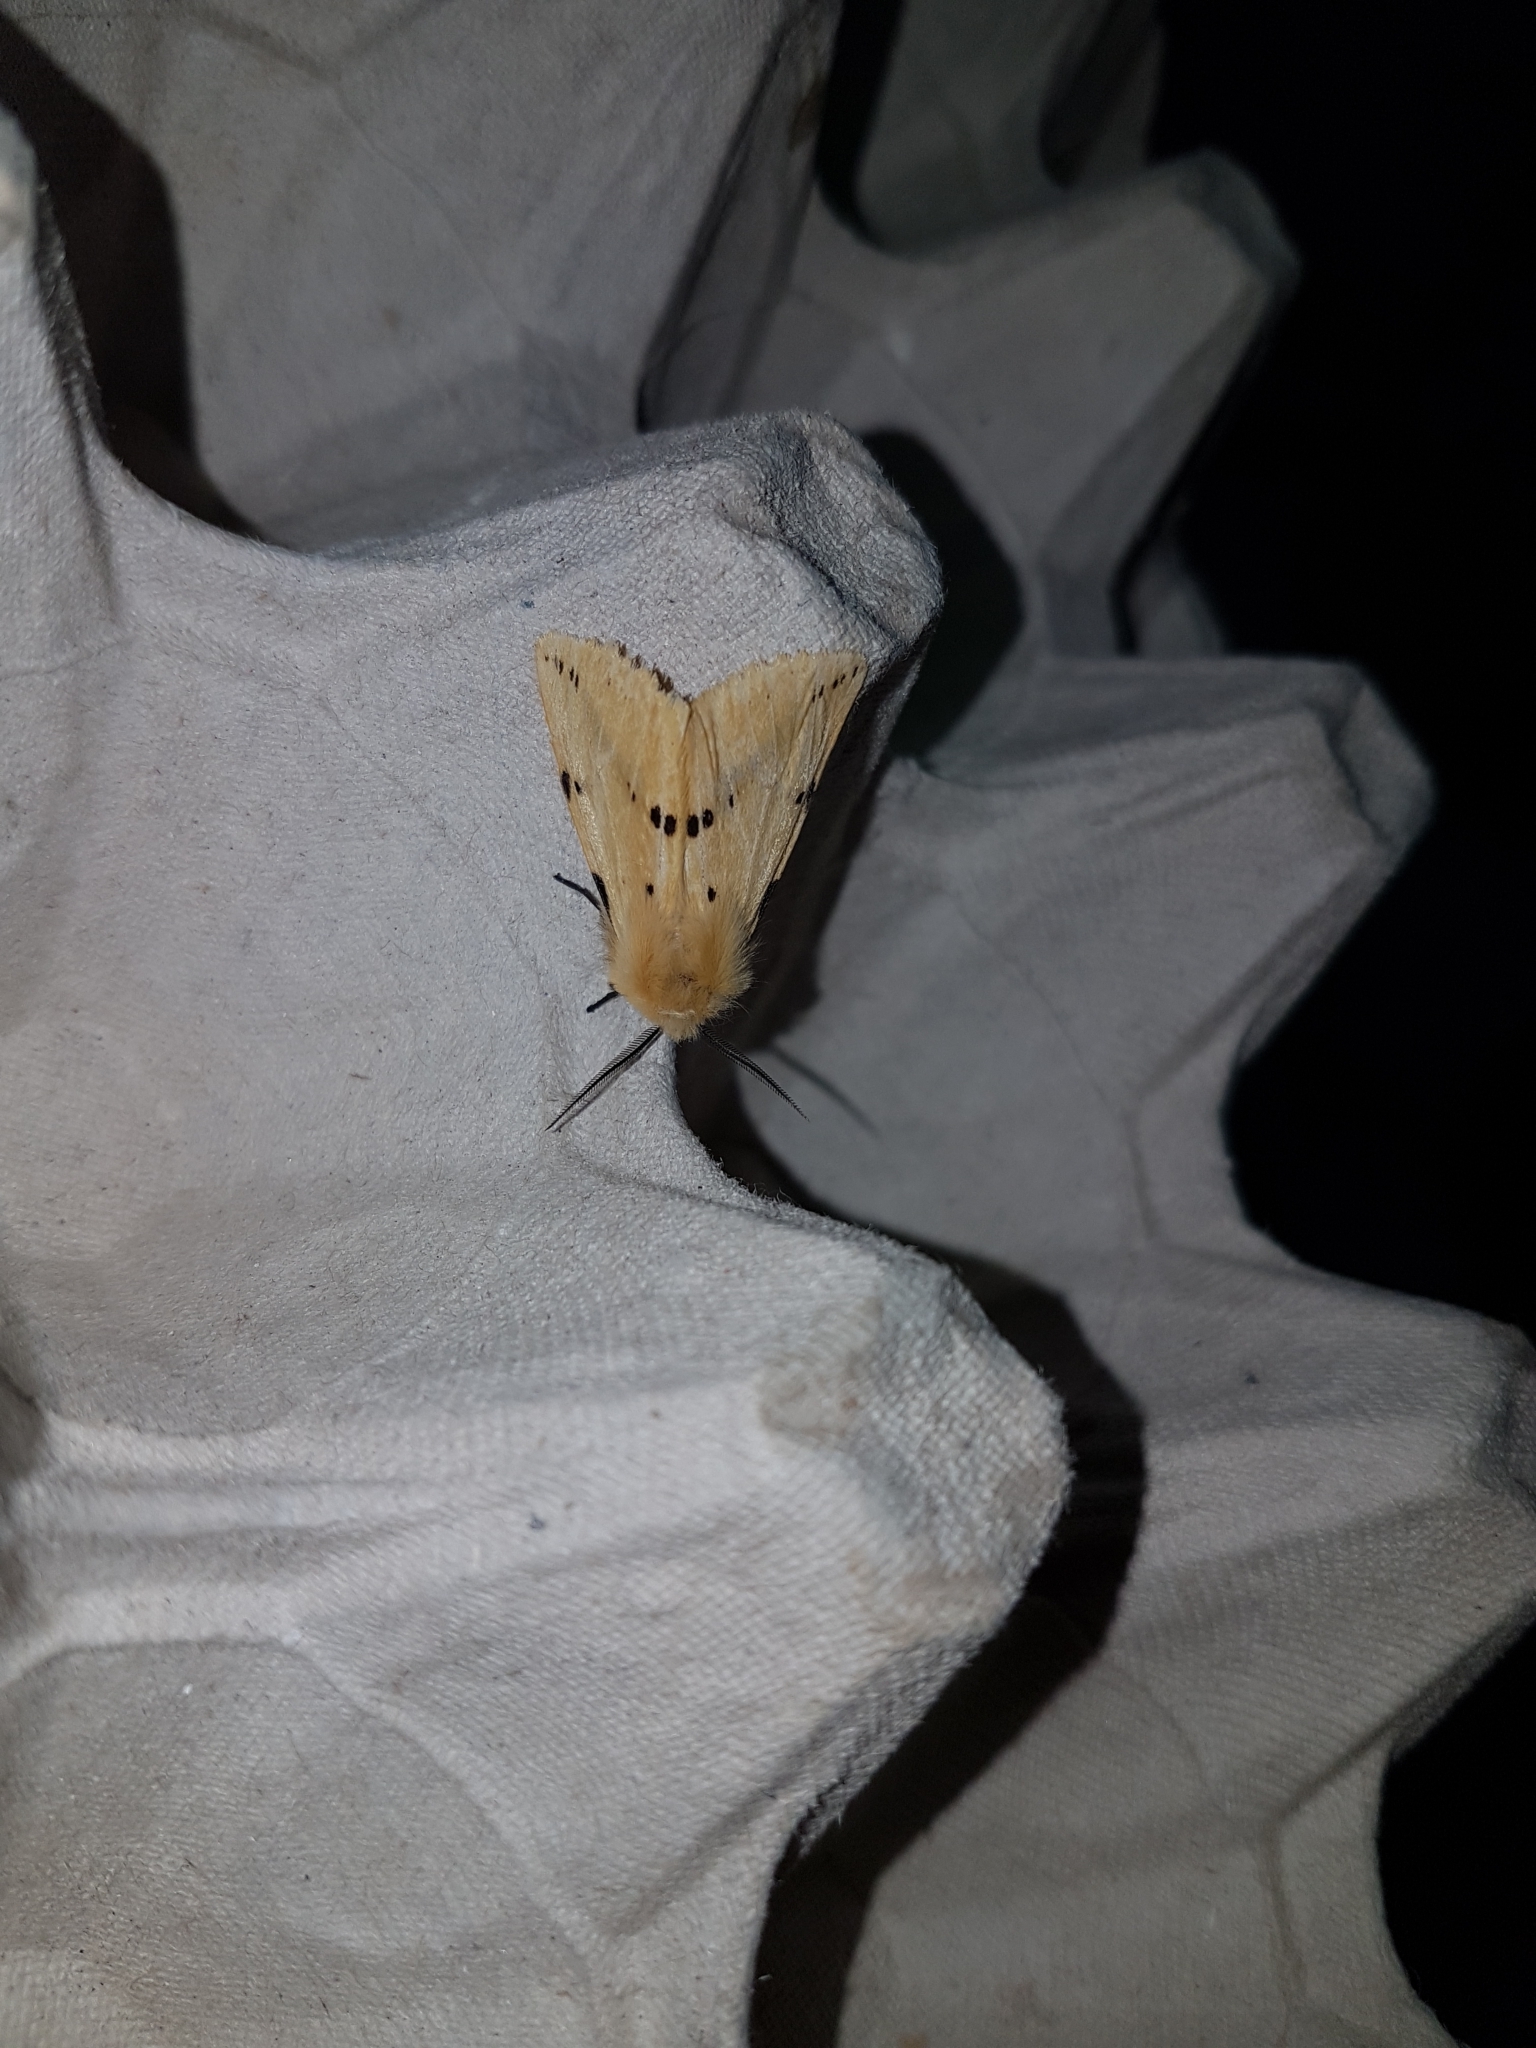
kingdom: Animalia
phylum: Arthropoda
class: Insecta
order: Lepidoptera
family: Erebidae
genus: Spilarctia
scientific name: Spilarctia lutea
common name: Buff ermine
